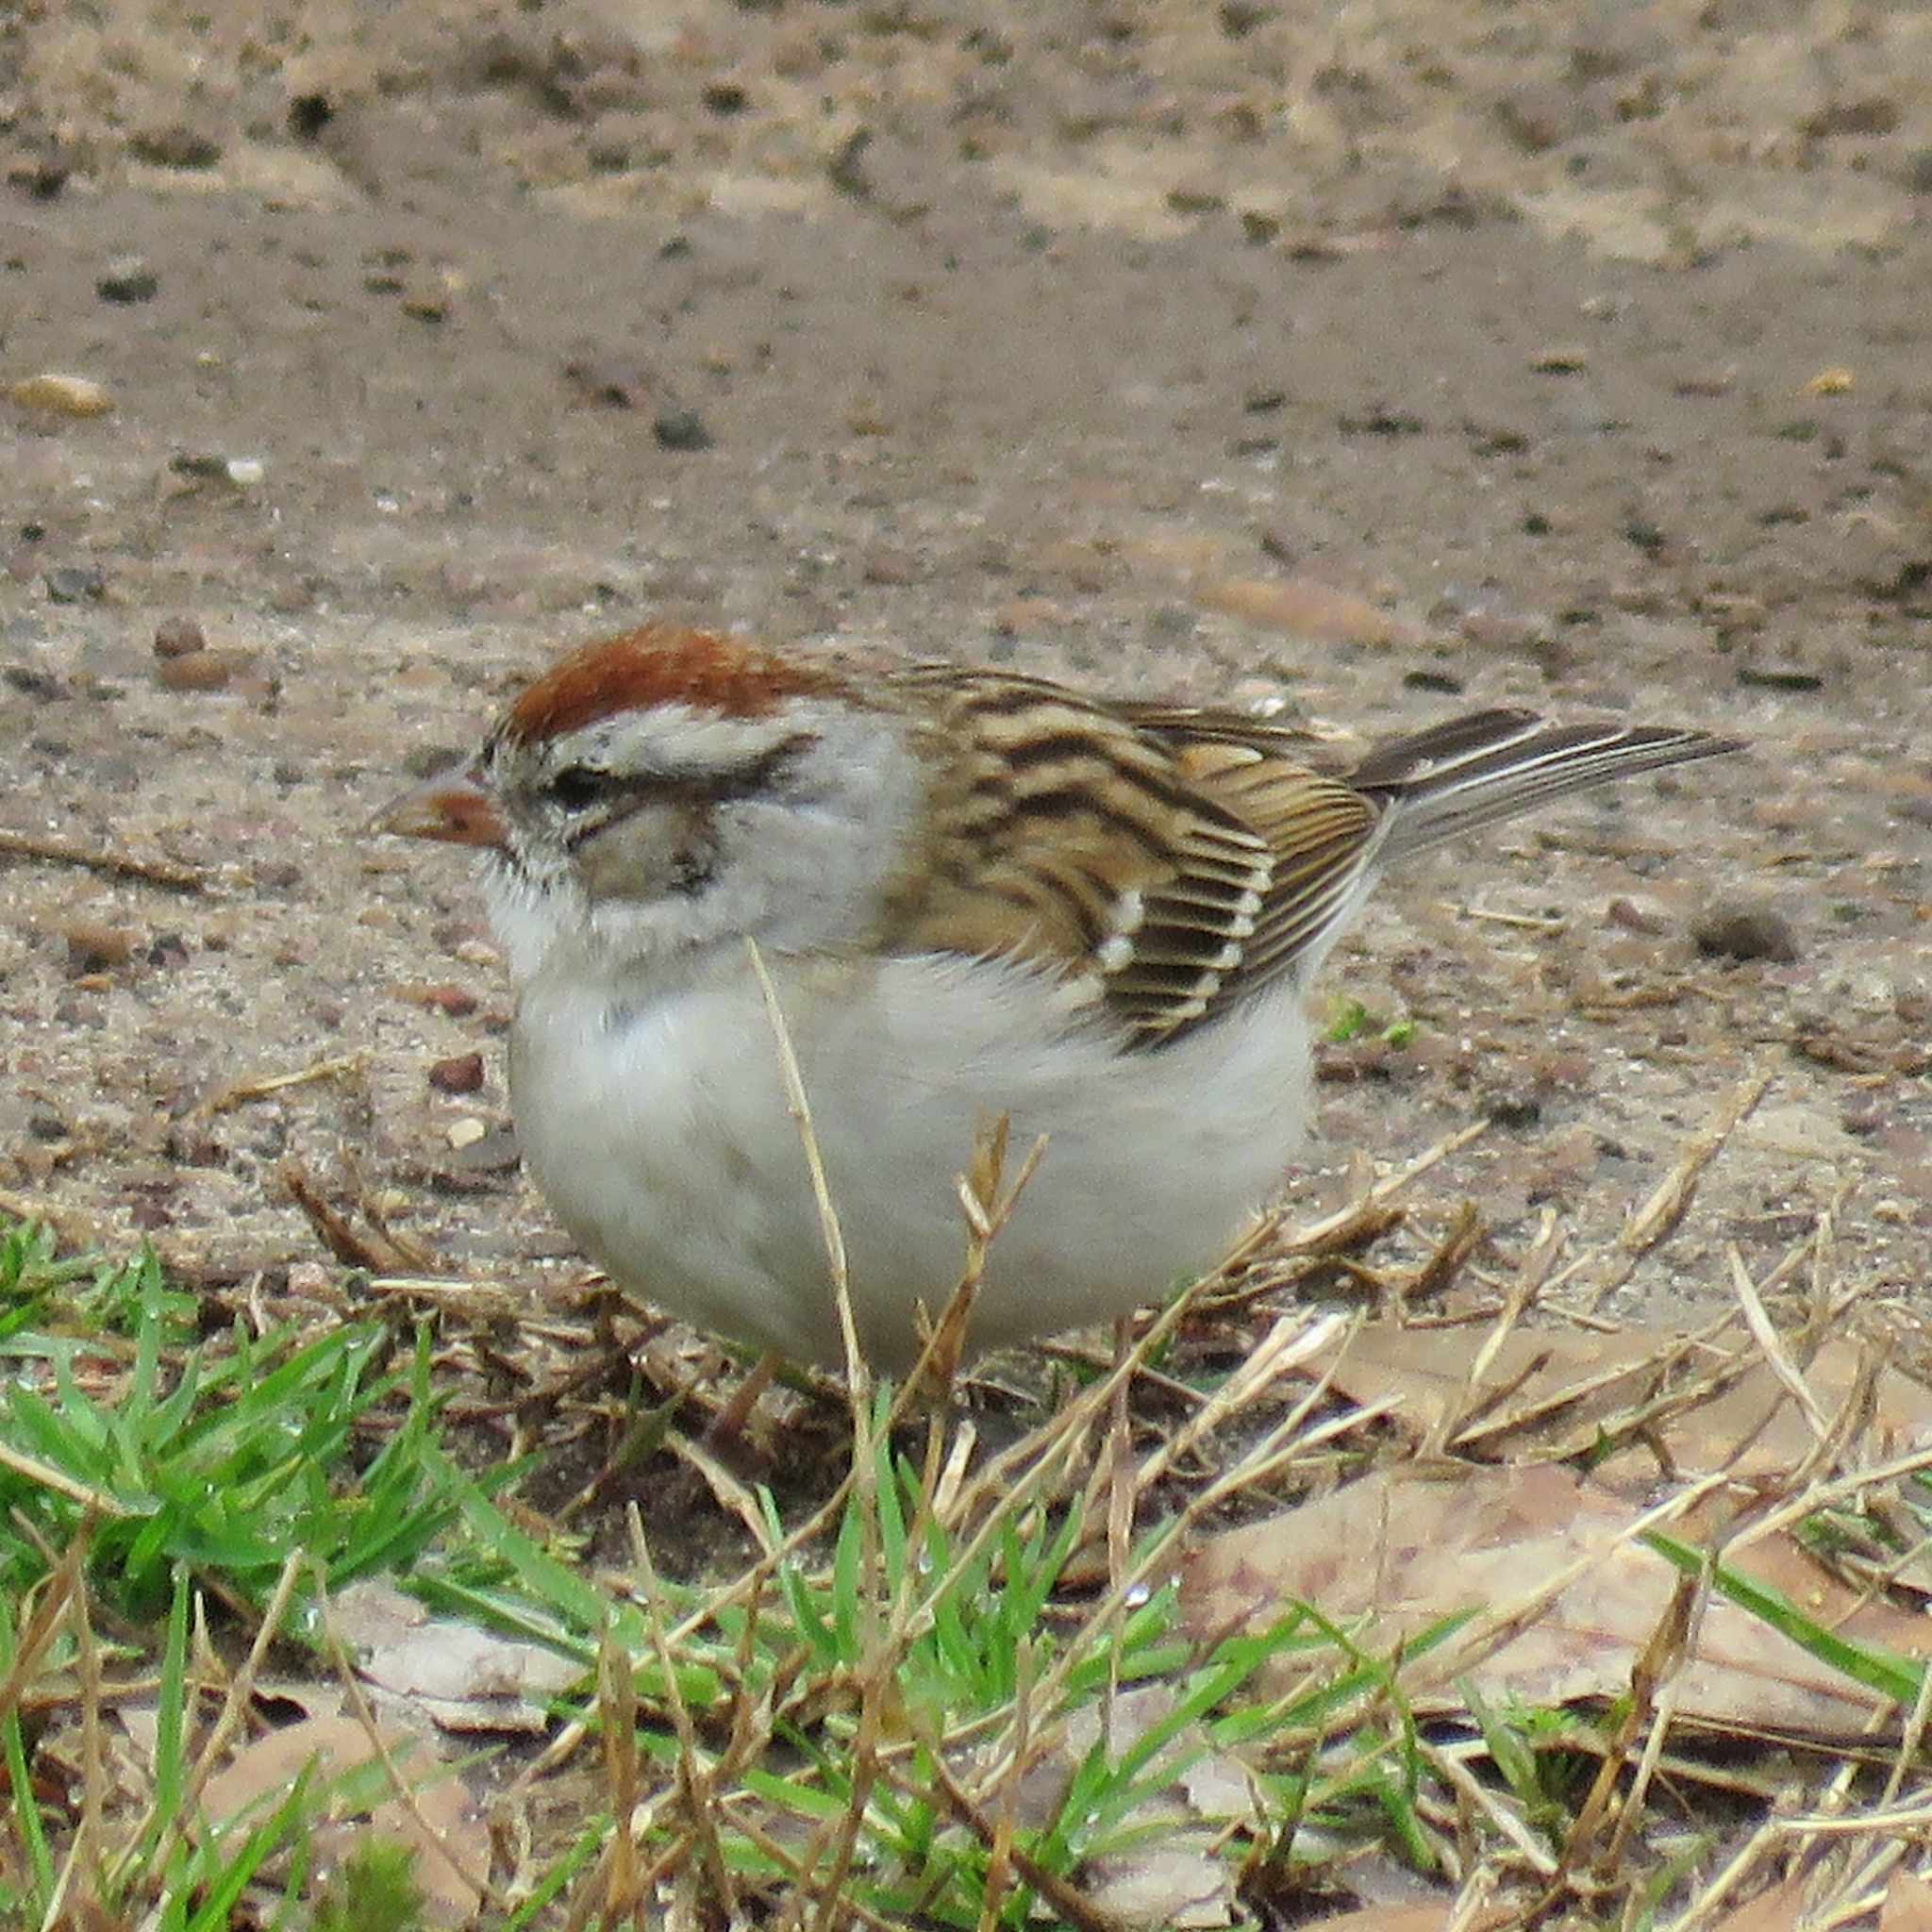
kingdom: Animalia
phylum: Chordata
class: Aves
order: Passeriformes
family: Passerellidae
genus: Spizella
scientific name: Spizella passerina
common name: Chipping sparrow
